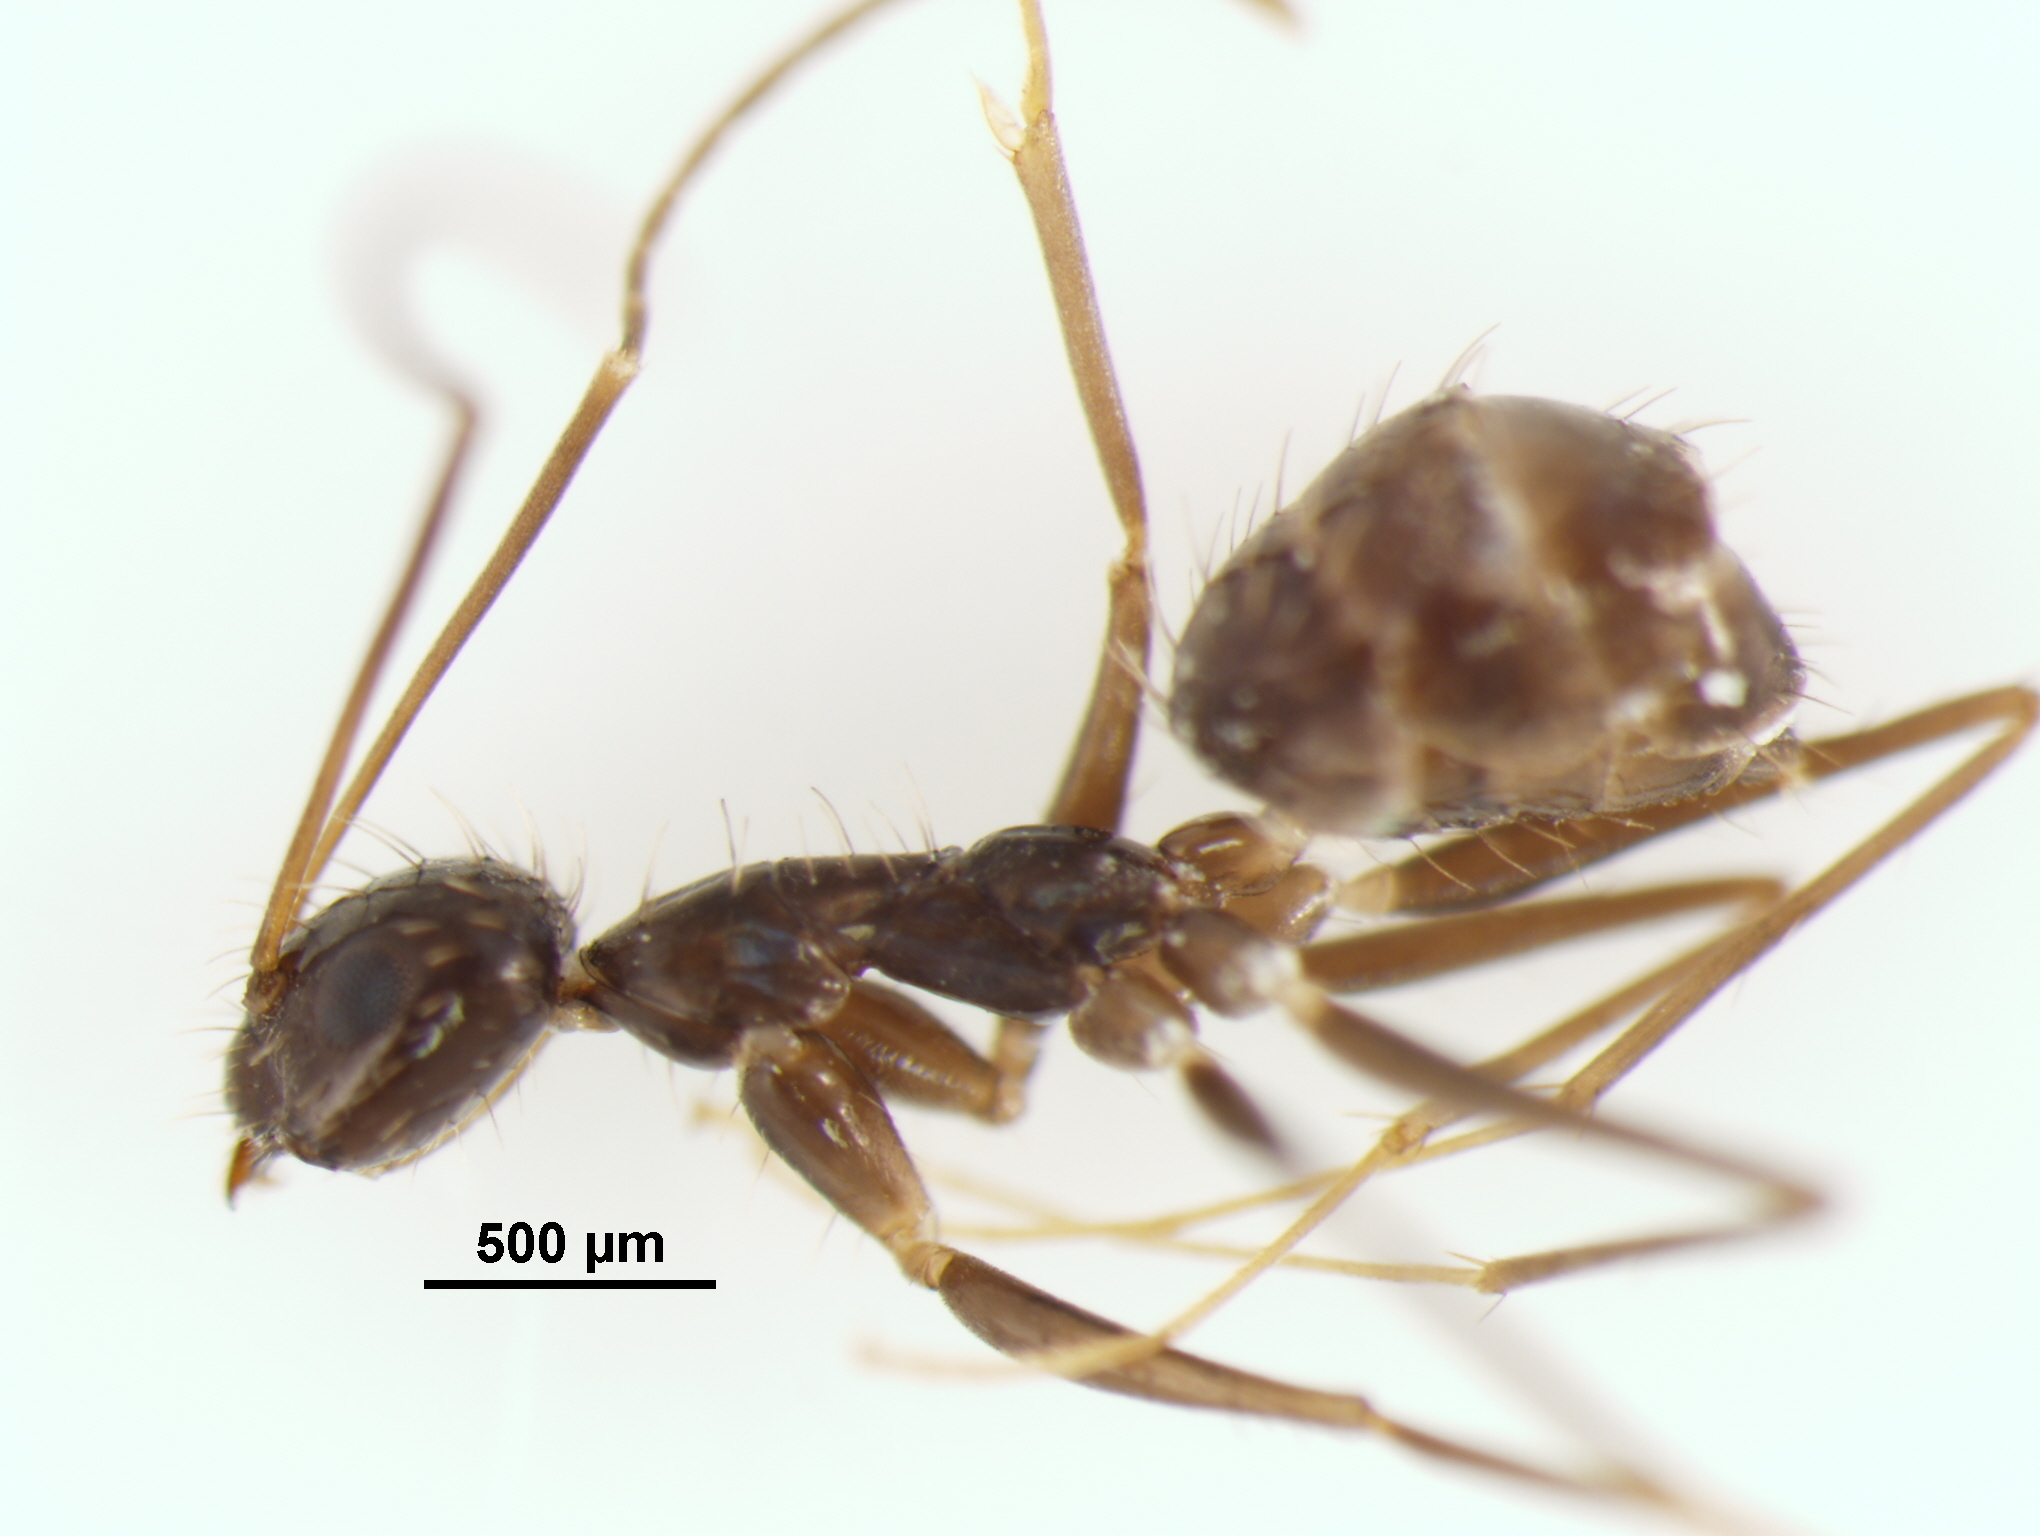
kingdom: Animalia
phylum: Arthropoda
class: Insecta
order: Hymenoptera
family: Formicidae
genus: Paratrechina
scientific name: Paratrechina longicornis
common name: Longhorned crazy ant
